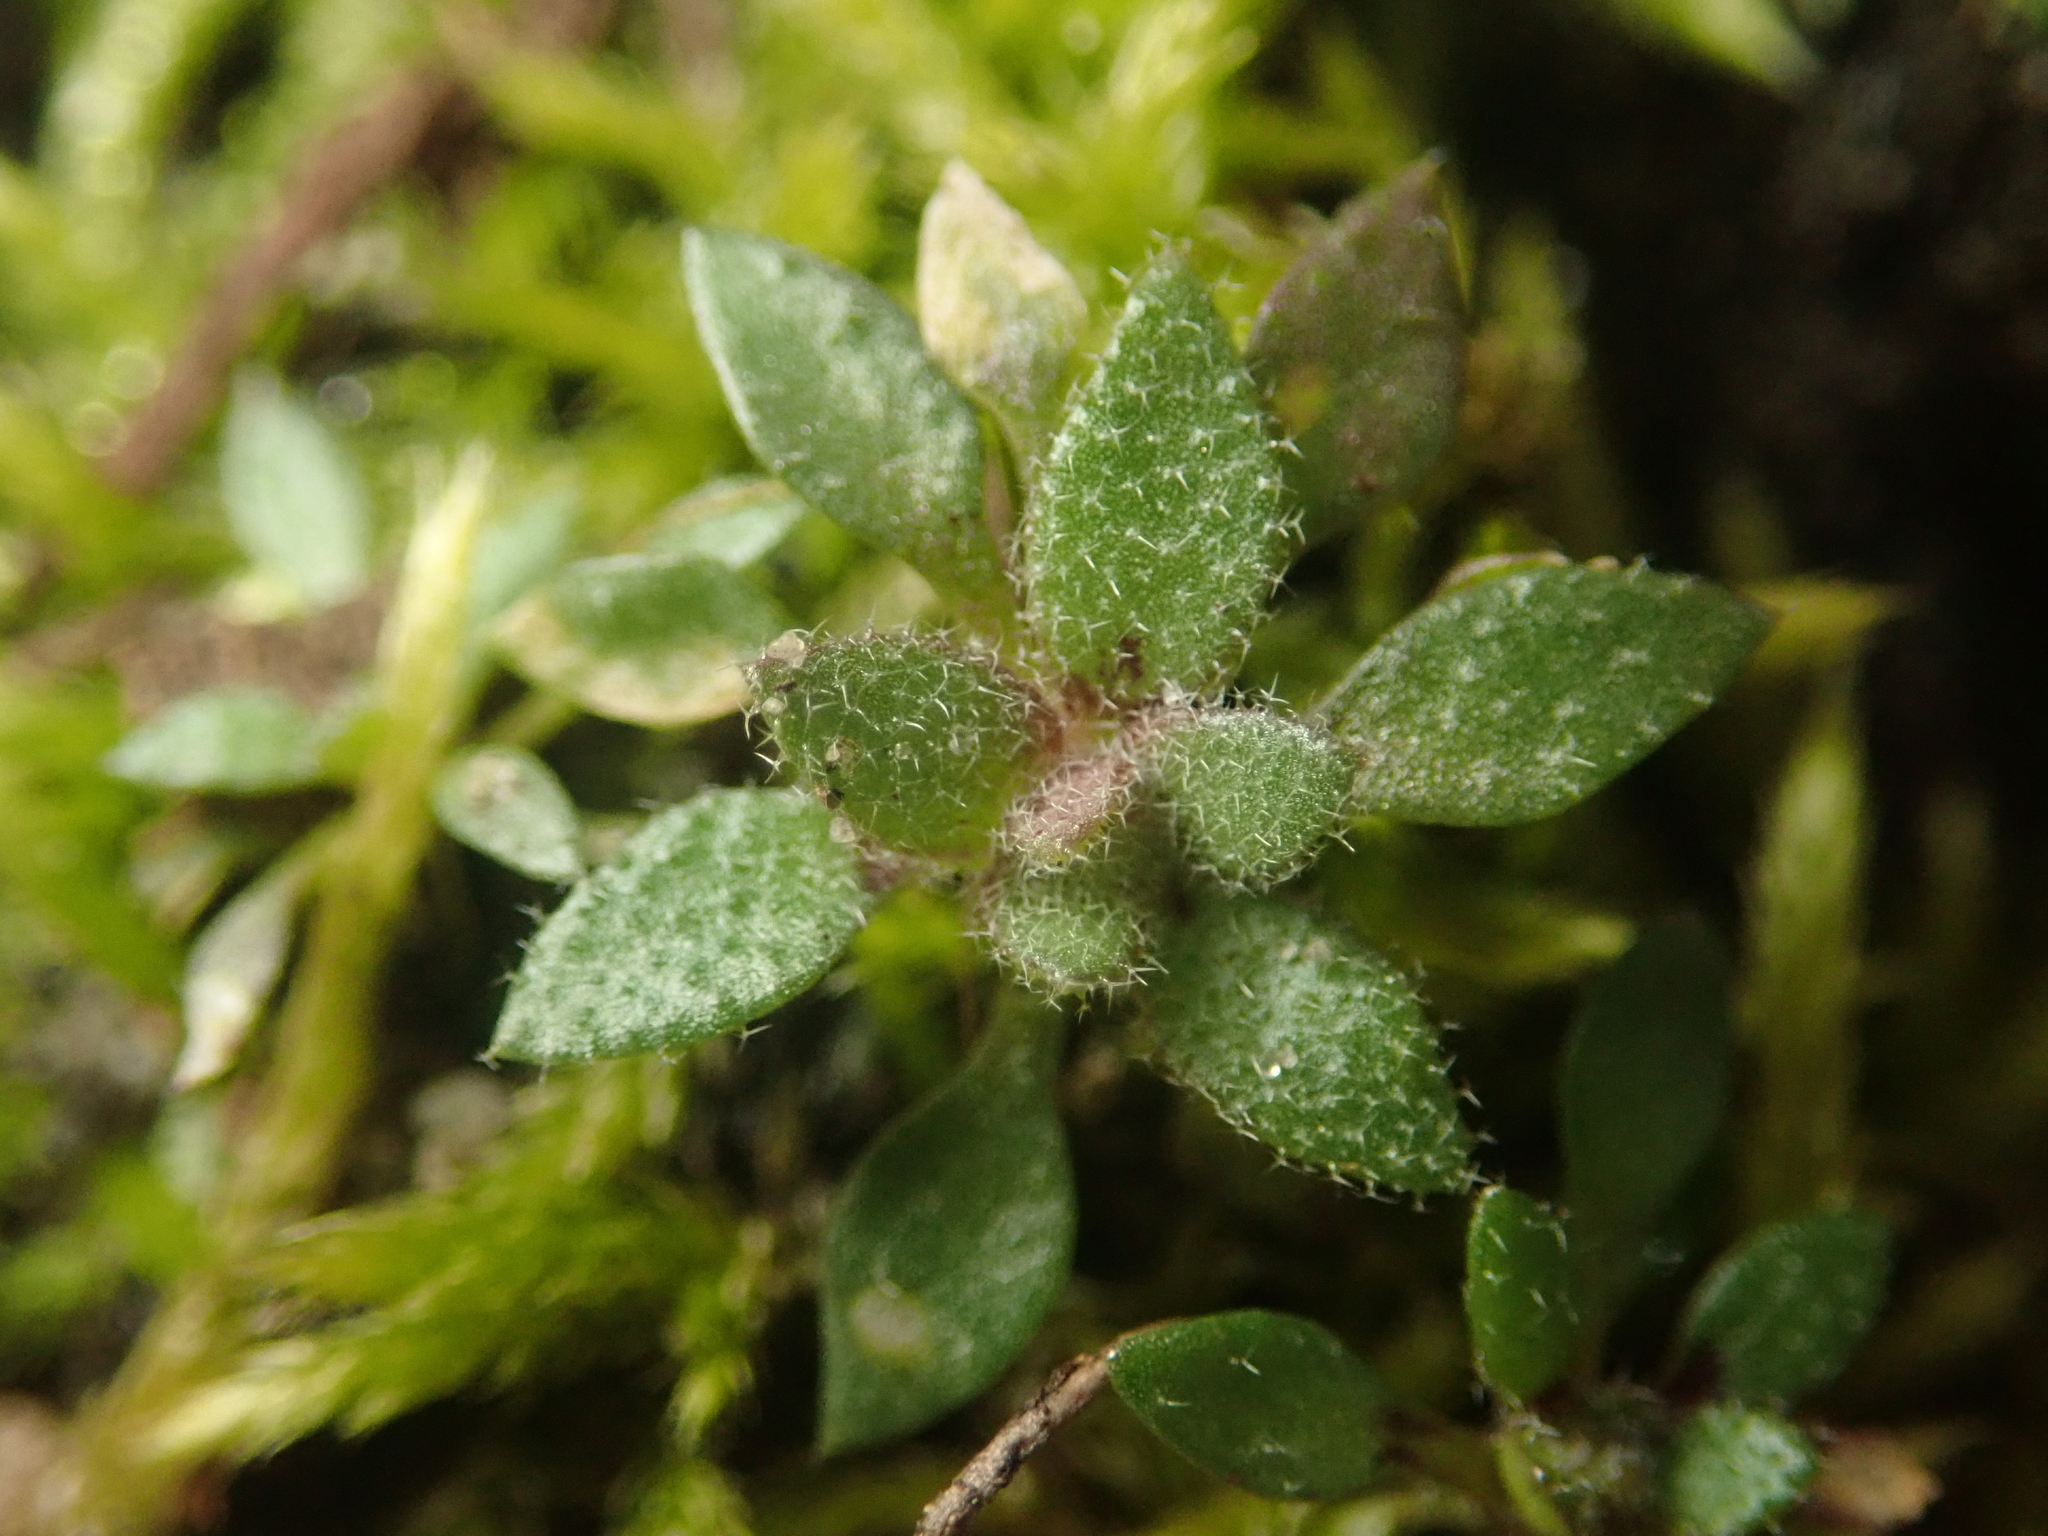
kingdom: Plantae
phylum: Tracheophyta
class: Magnoliopsida
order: Brassicales
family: Brassicaceae
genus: Draba
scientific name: Draba verna
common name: Spring draba
